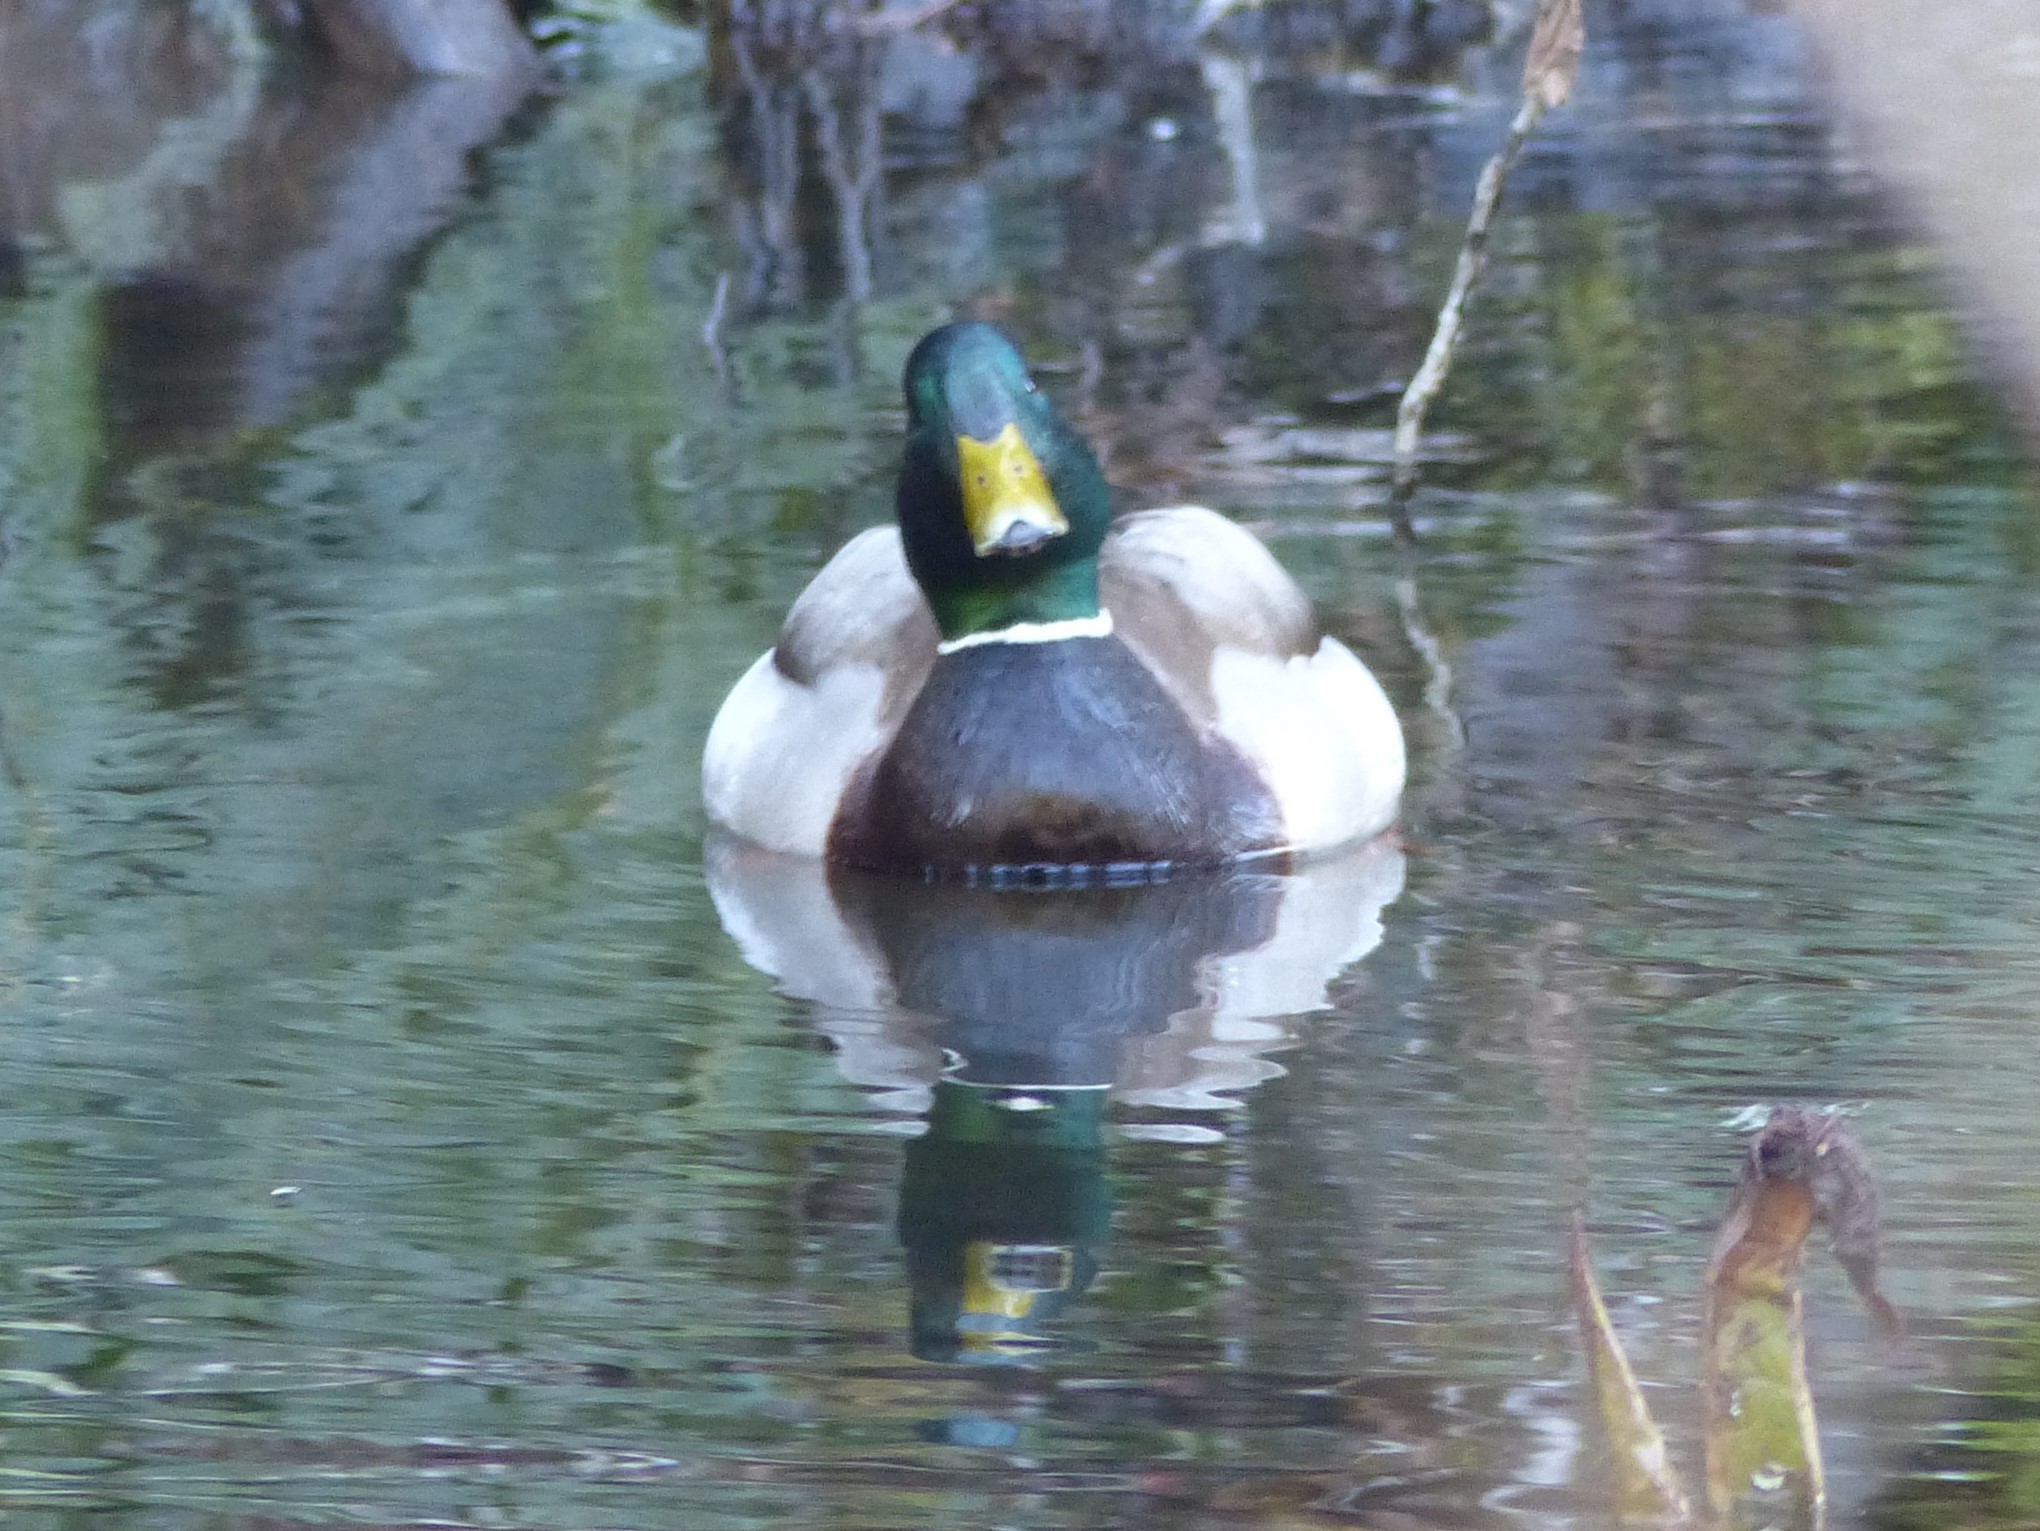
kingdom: Animalia
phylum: Chordata
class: Aves
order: Anseriformes
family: Anatidae
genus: Anas
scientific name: Anas platyrhynchos
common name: Mallard
